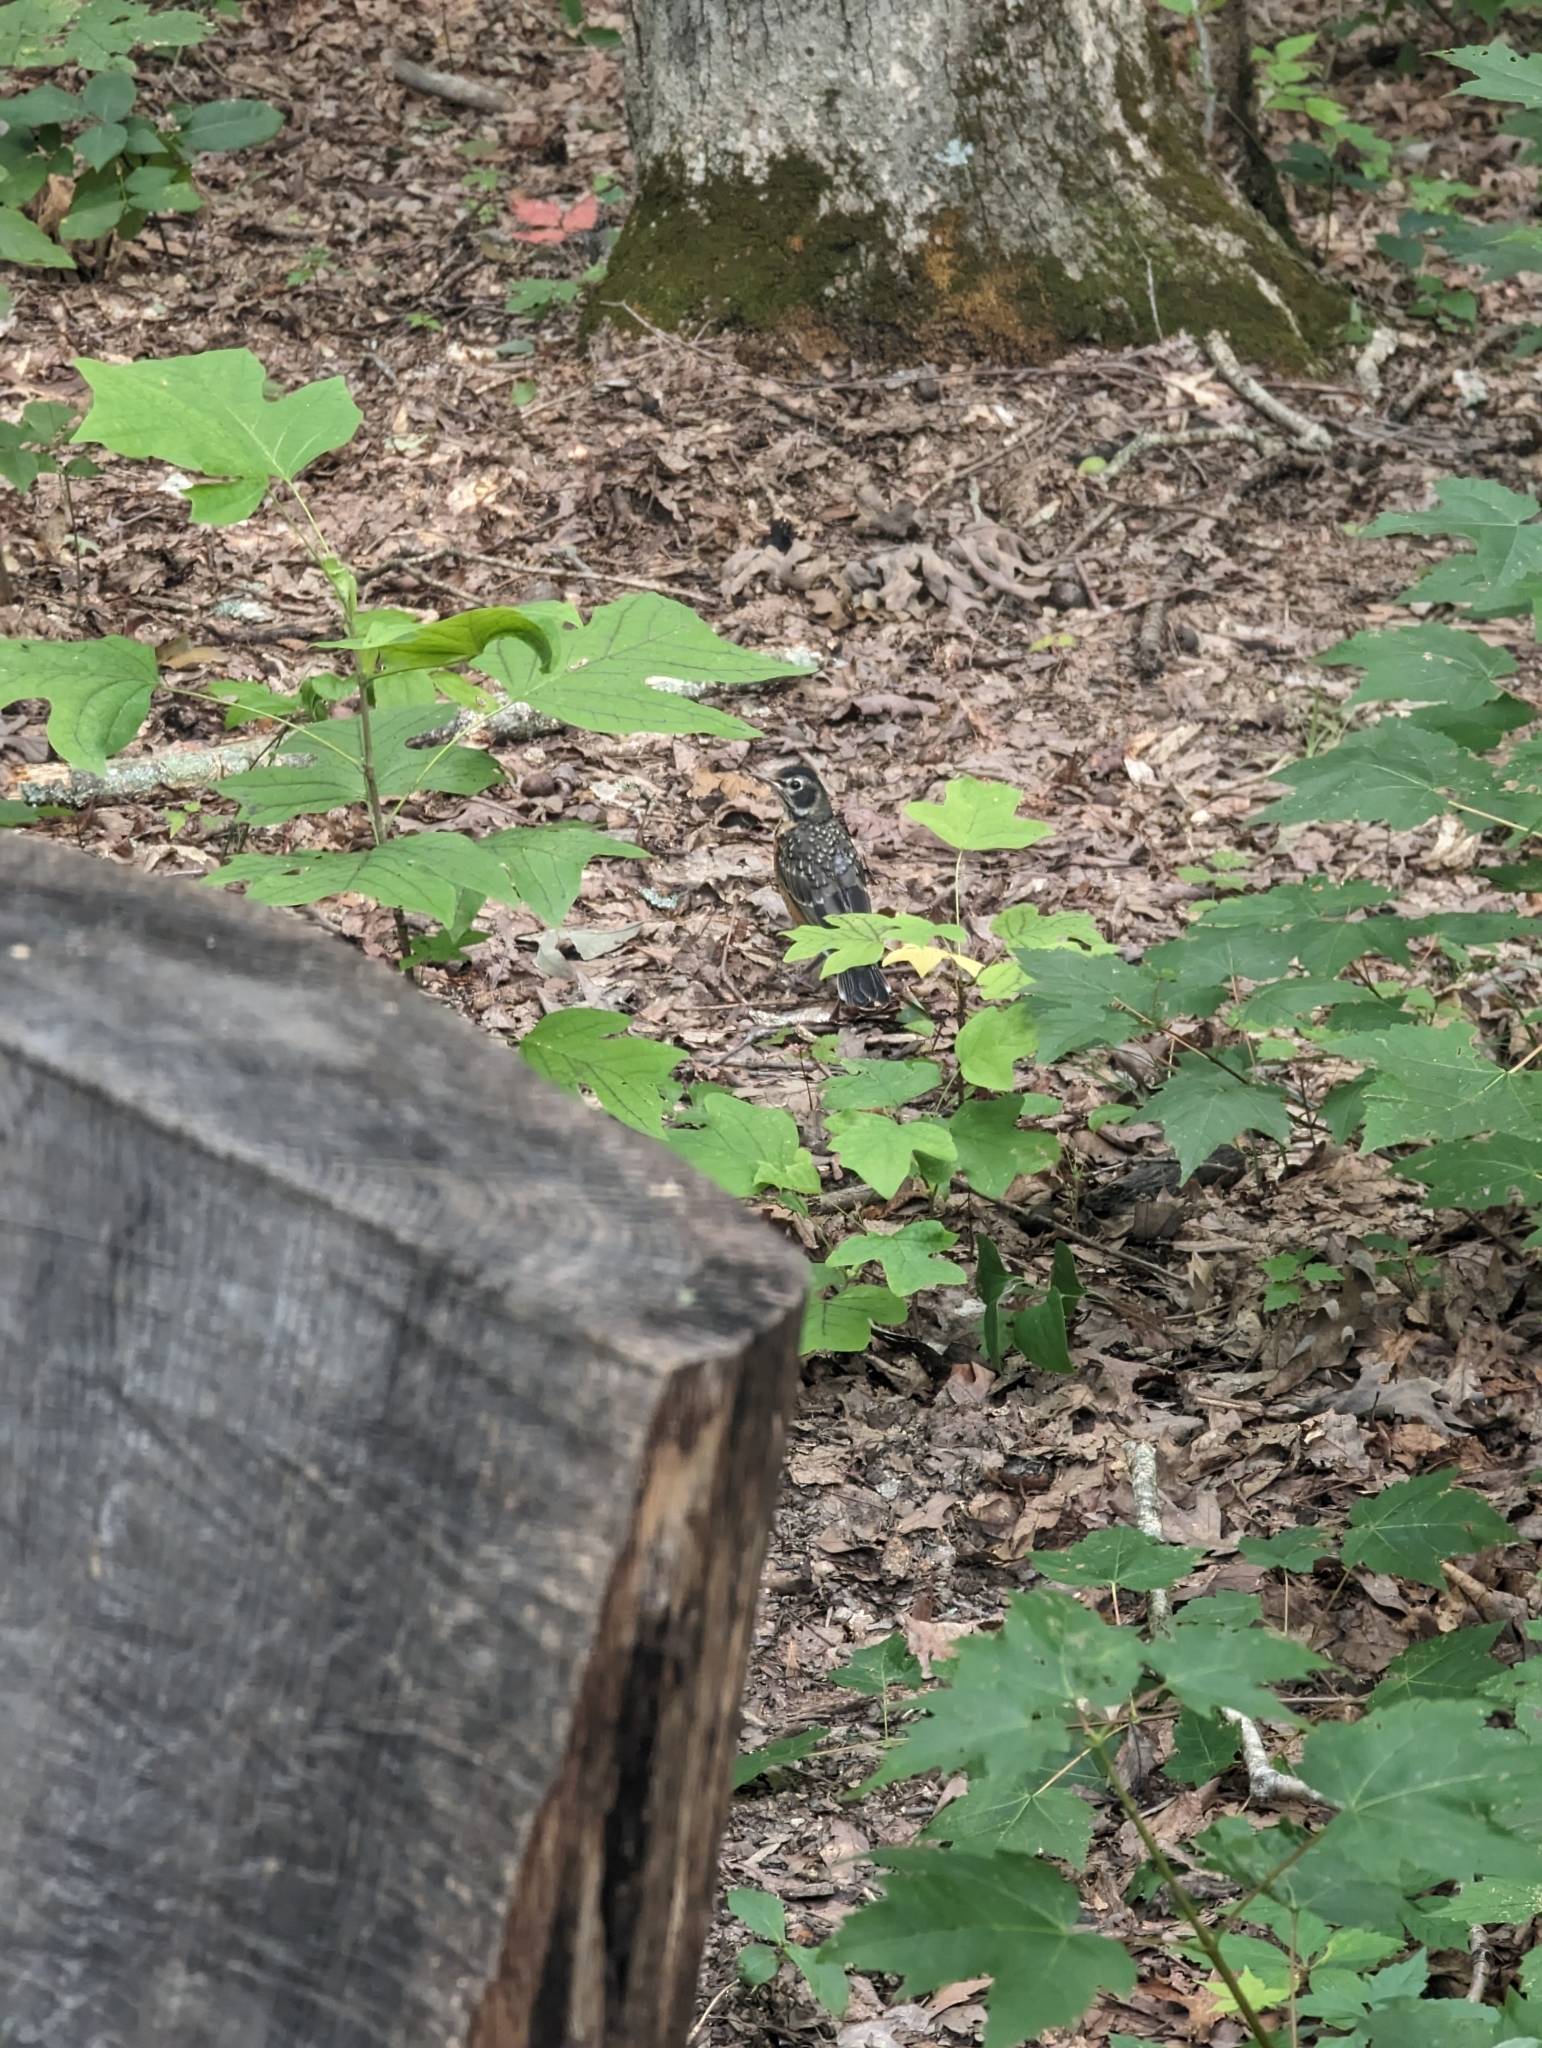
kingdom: Animalia
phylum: Chordata
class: Aves
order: Passeriformes
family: Turdidae
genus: Turdus
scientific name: Turdus migratorius
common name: American robin
